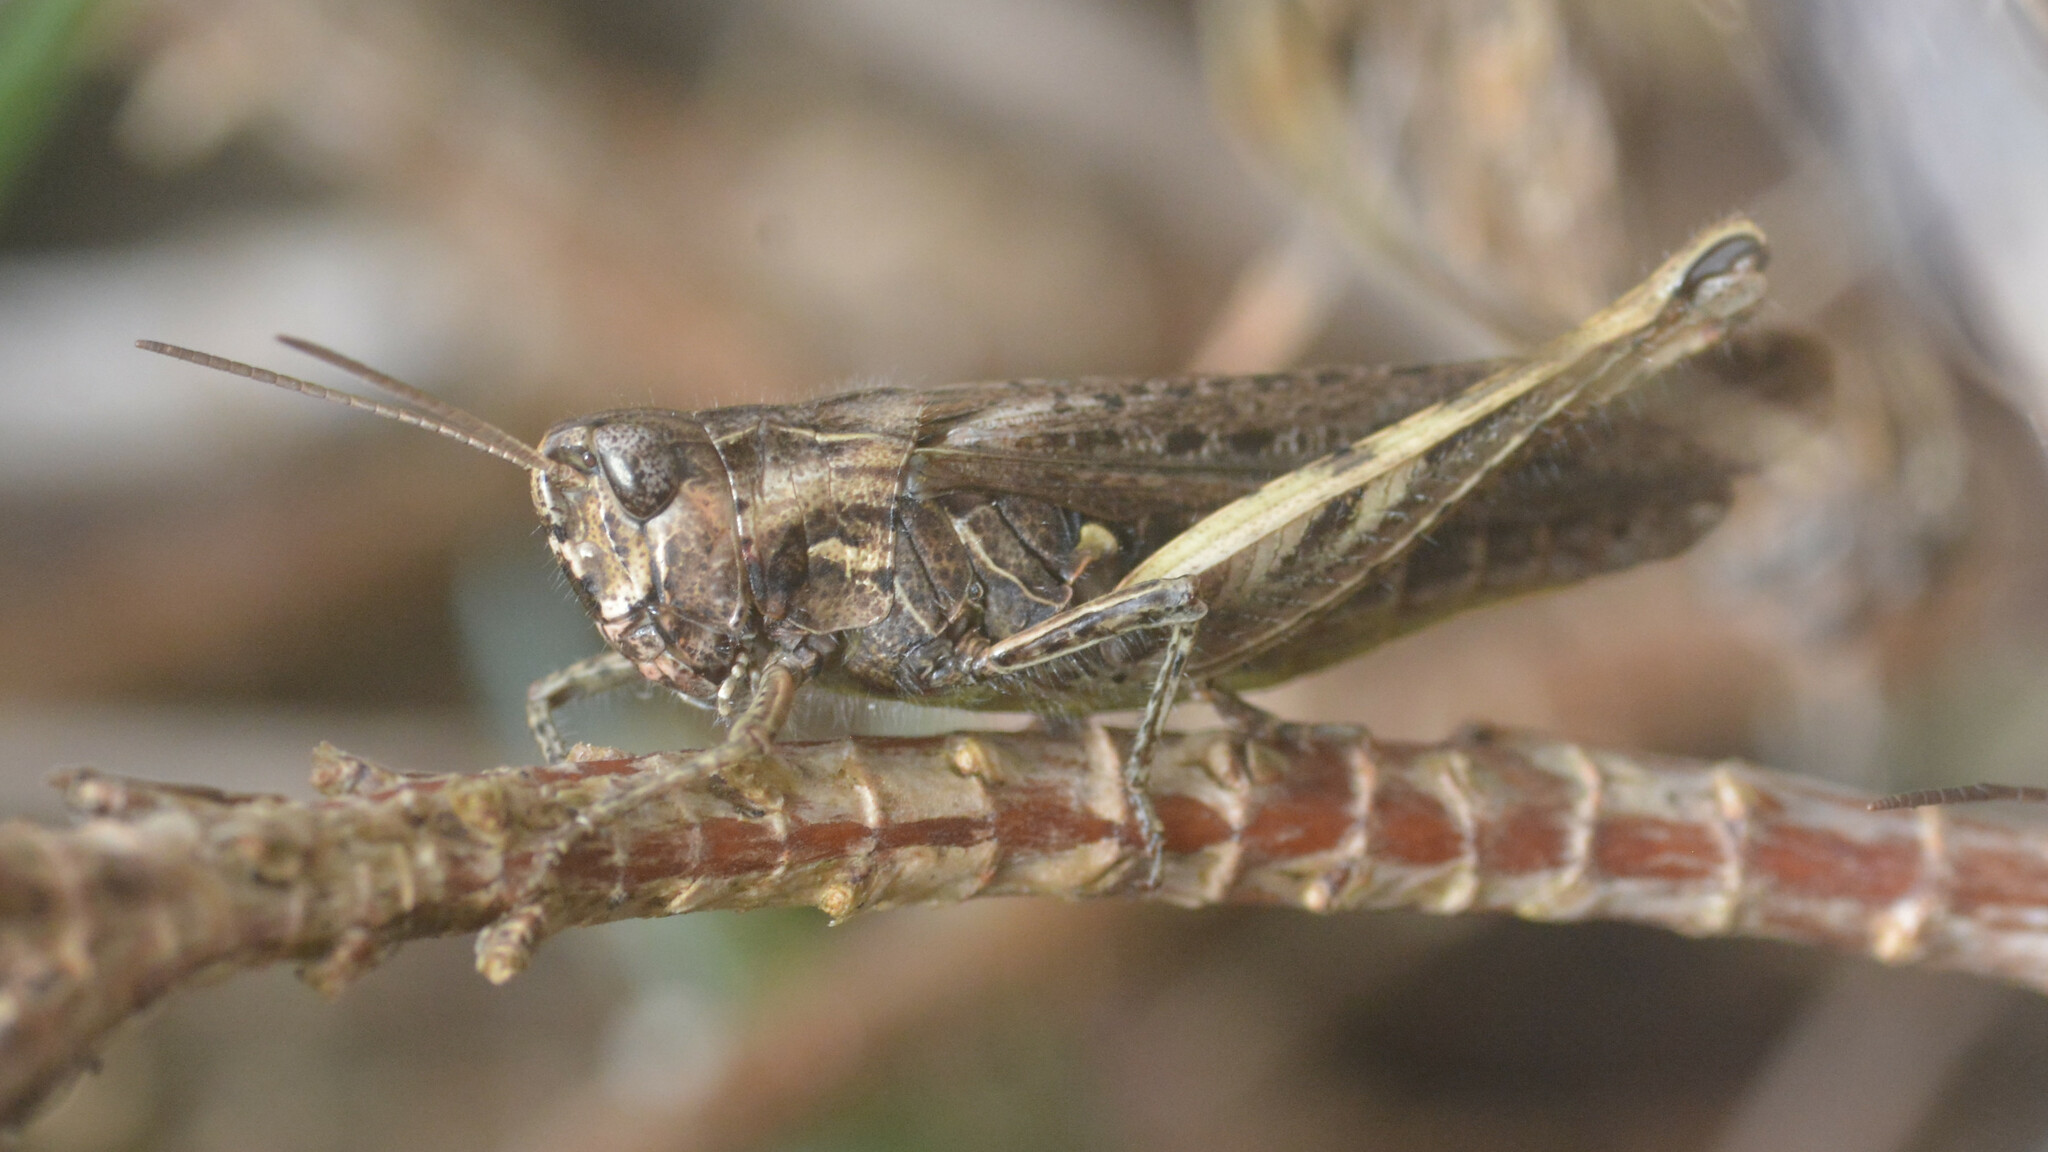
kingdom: Animalia
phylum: Arthropoda
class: Insecta
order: Orthoptera
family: Acrididae
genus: Chorthippus
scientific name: Chorthippus brunneus
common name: Field grasshopper
